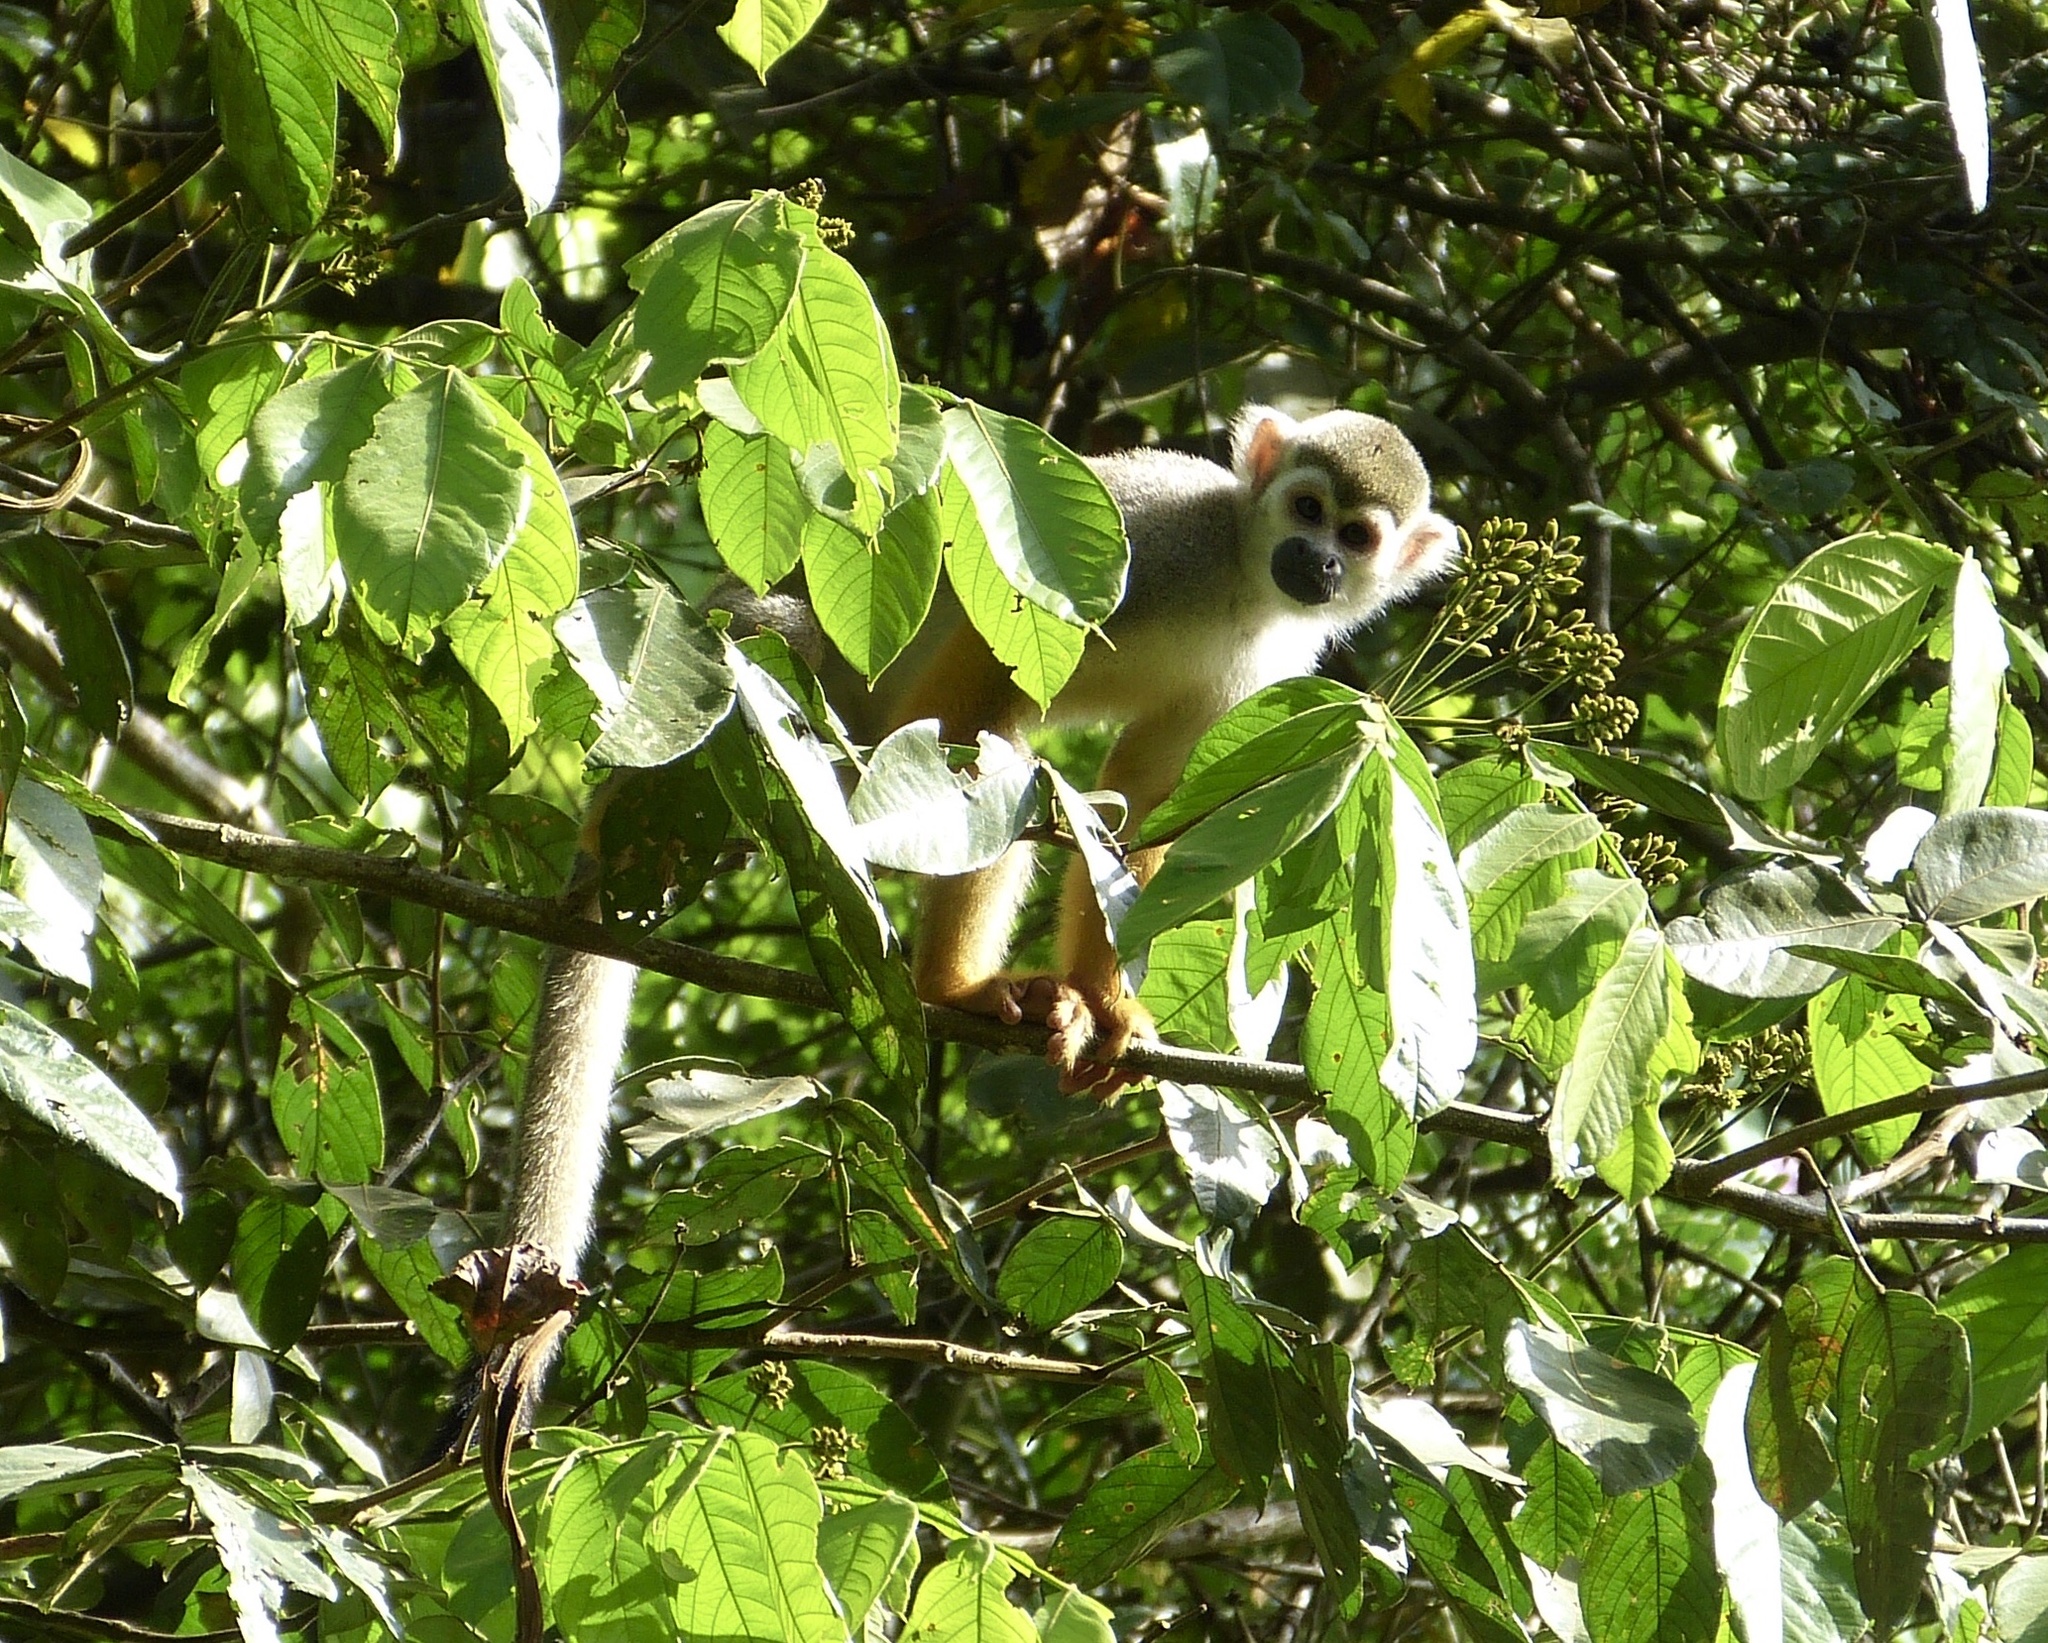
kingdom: Animalia
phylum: Chordata
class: Mammalia
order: Primates
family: Cebidae
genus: Saimiri
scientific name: Saimiri sciureus
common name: Common squirrel monkey
